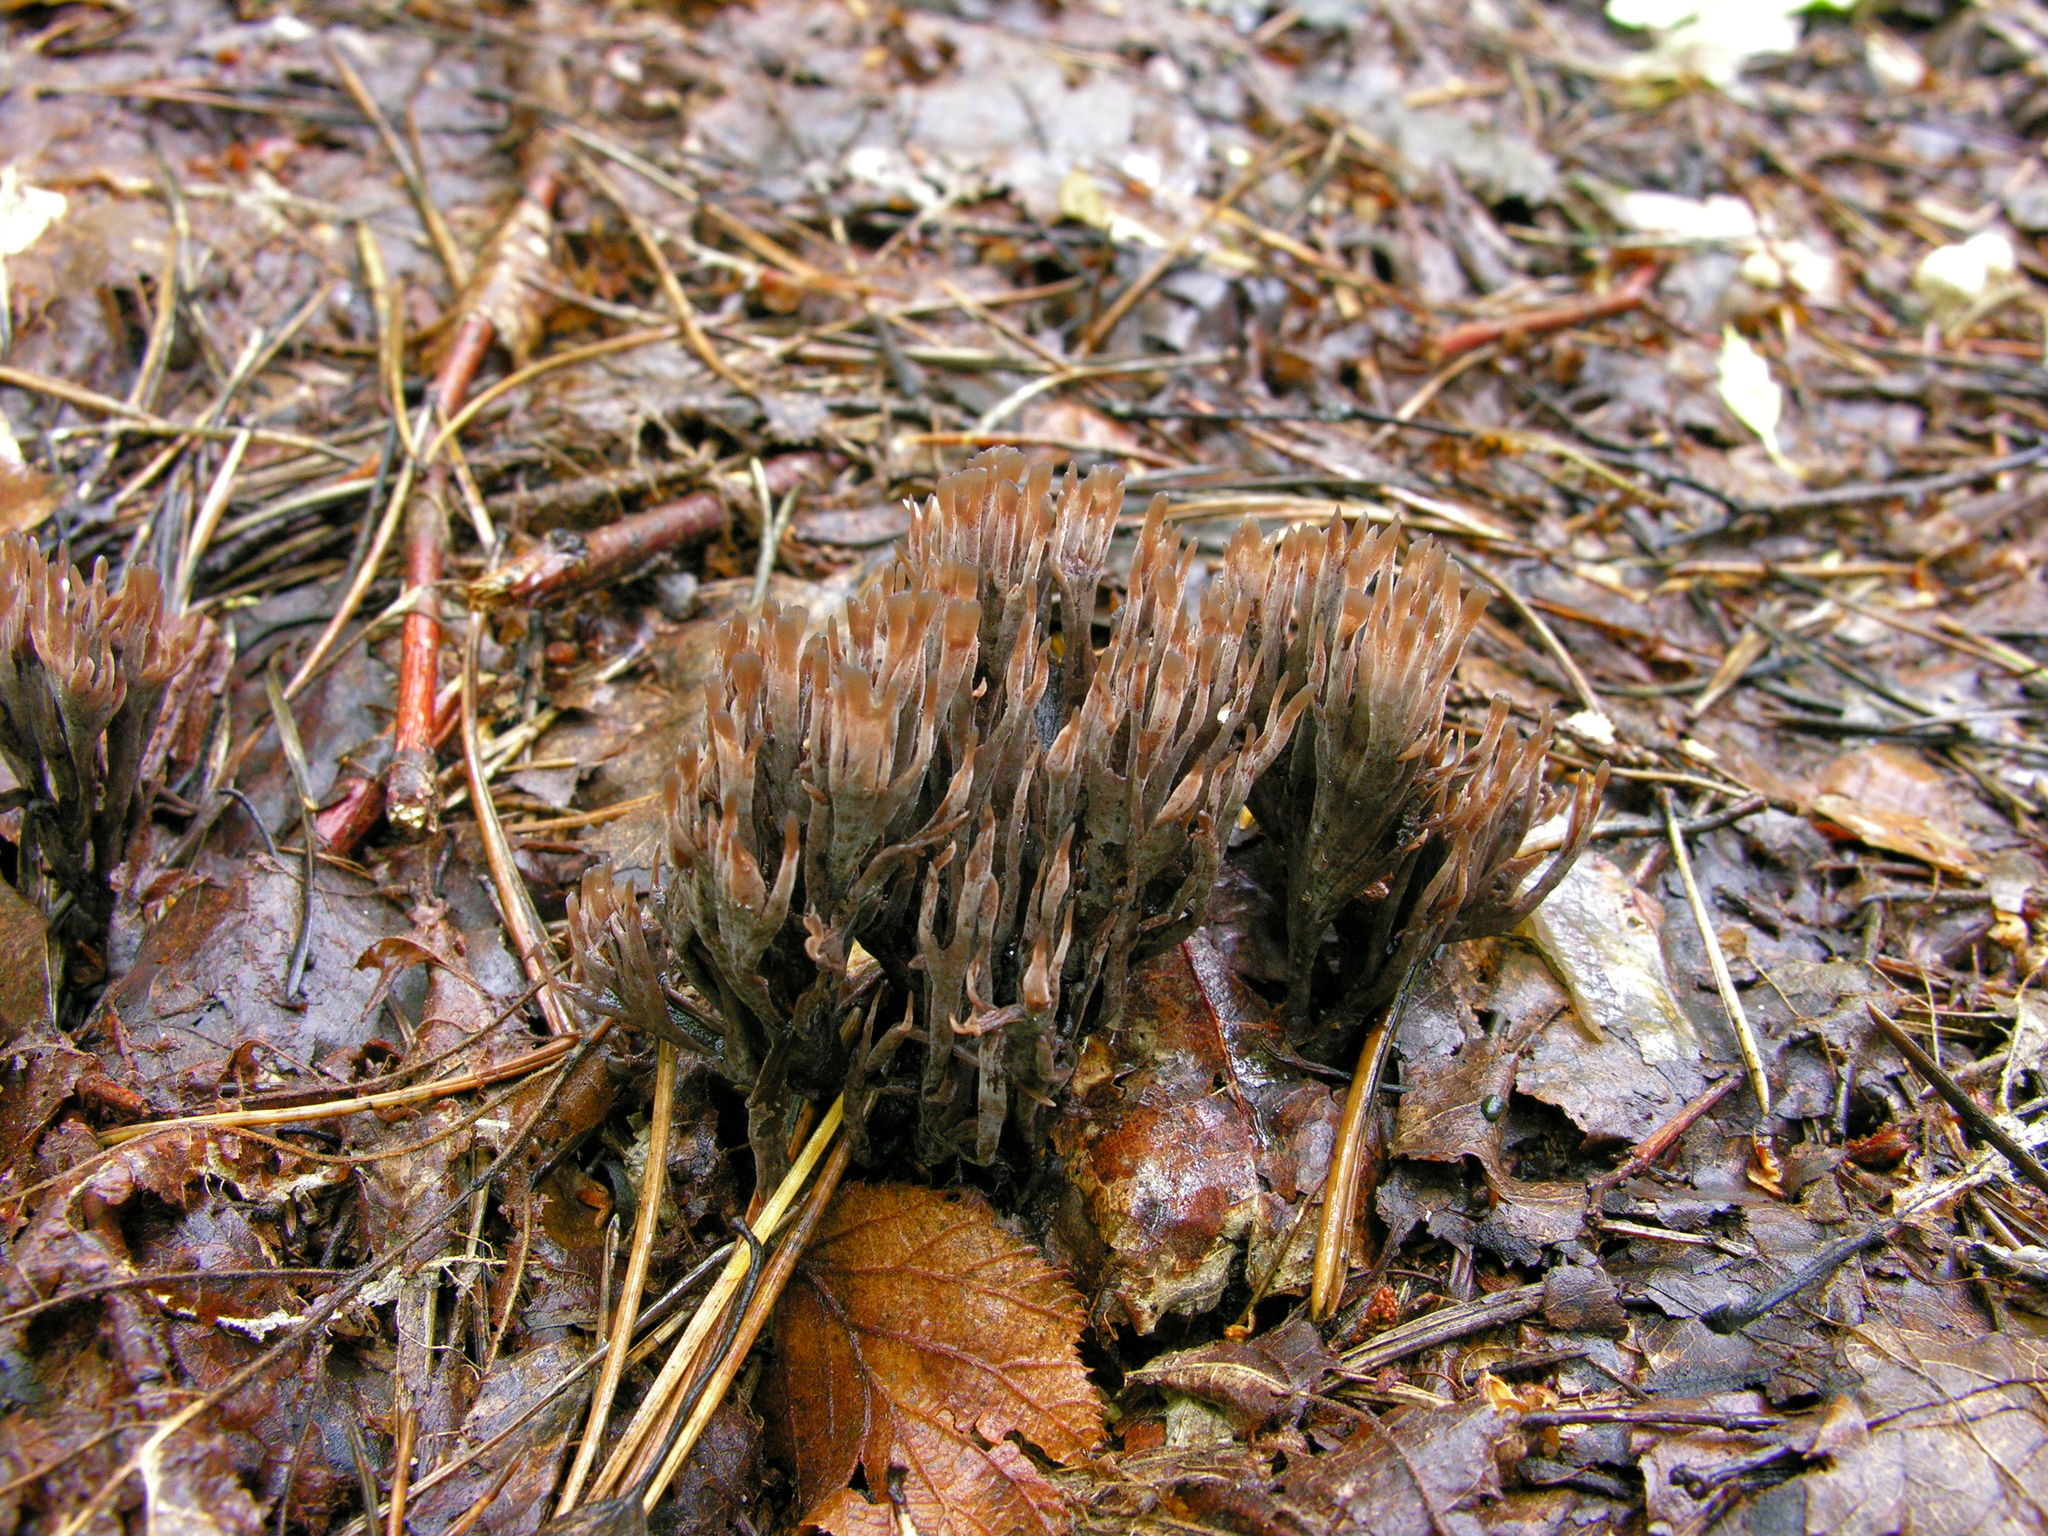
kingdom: Fungi
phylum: Basidiomycota
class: Agaricomycetes
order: Thelephorales
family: Thelephoraceae
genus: Thelephora
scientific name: Thelephora palmata
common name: Stinking earthfan
